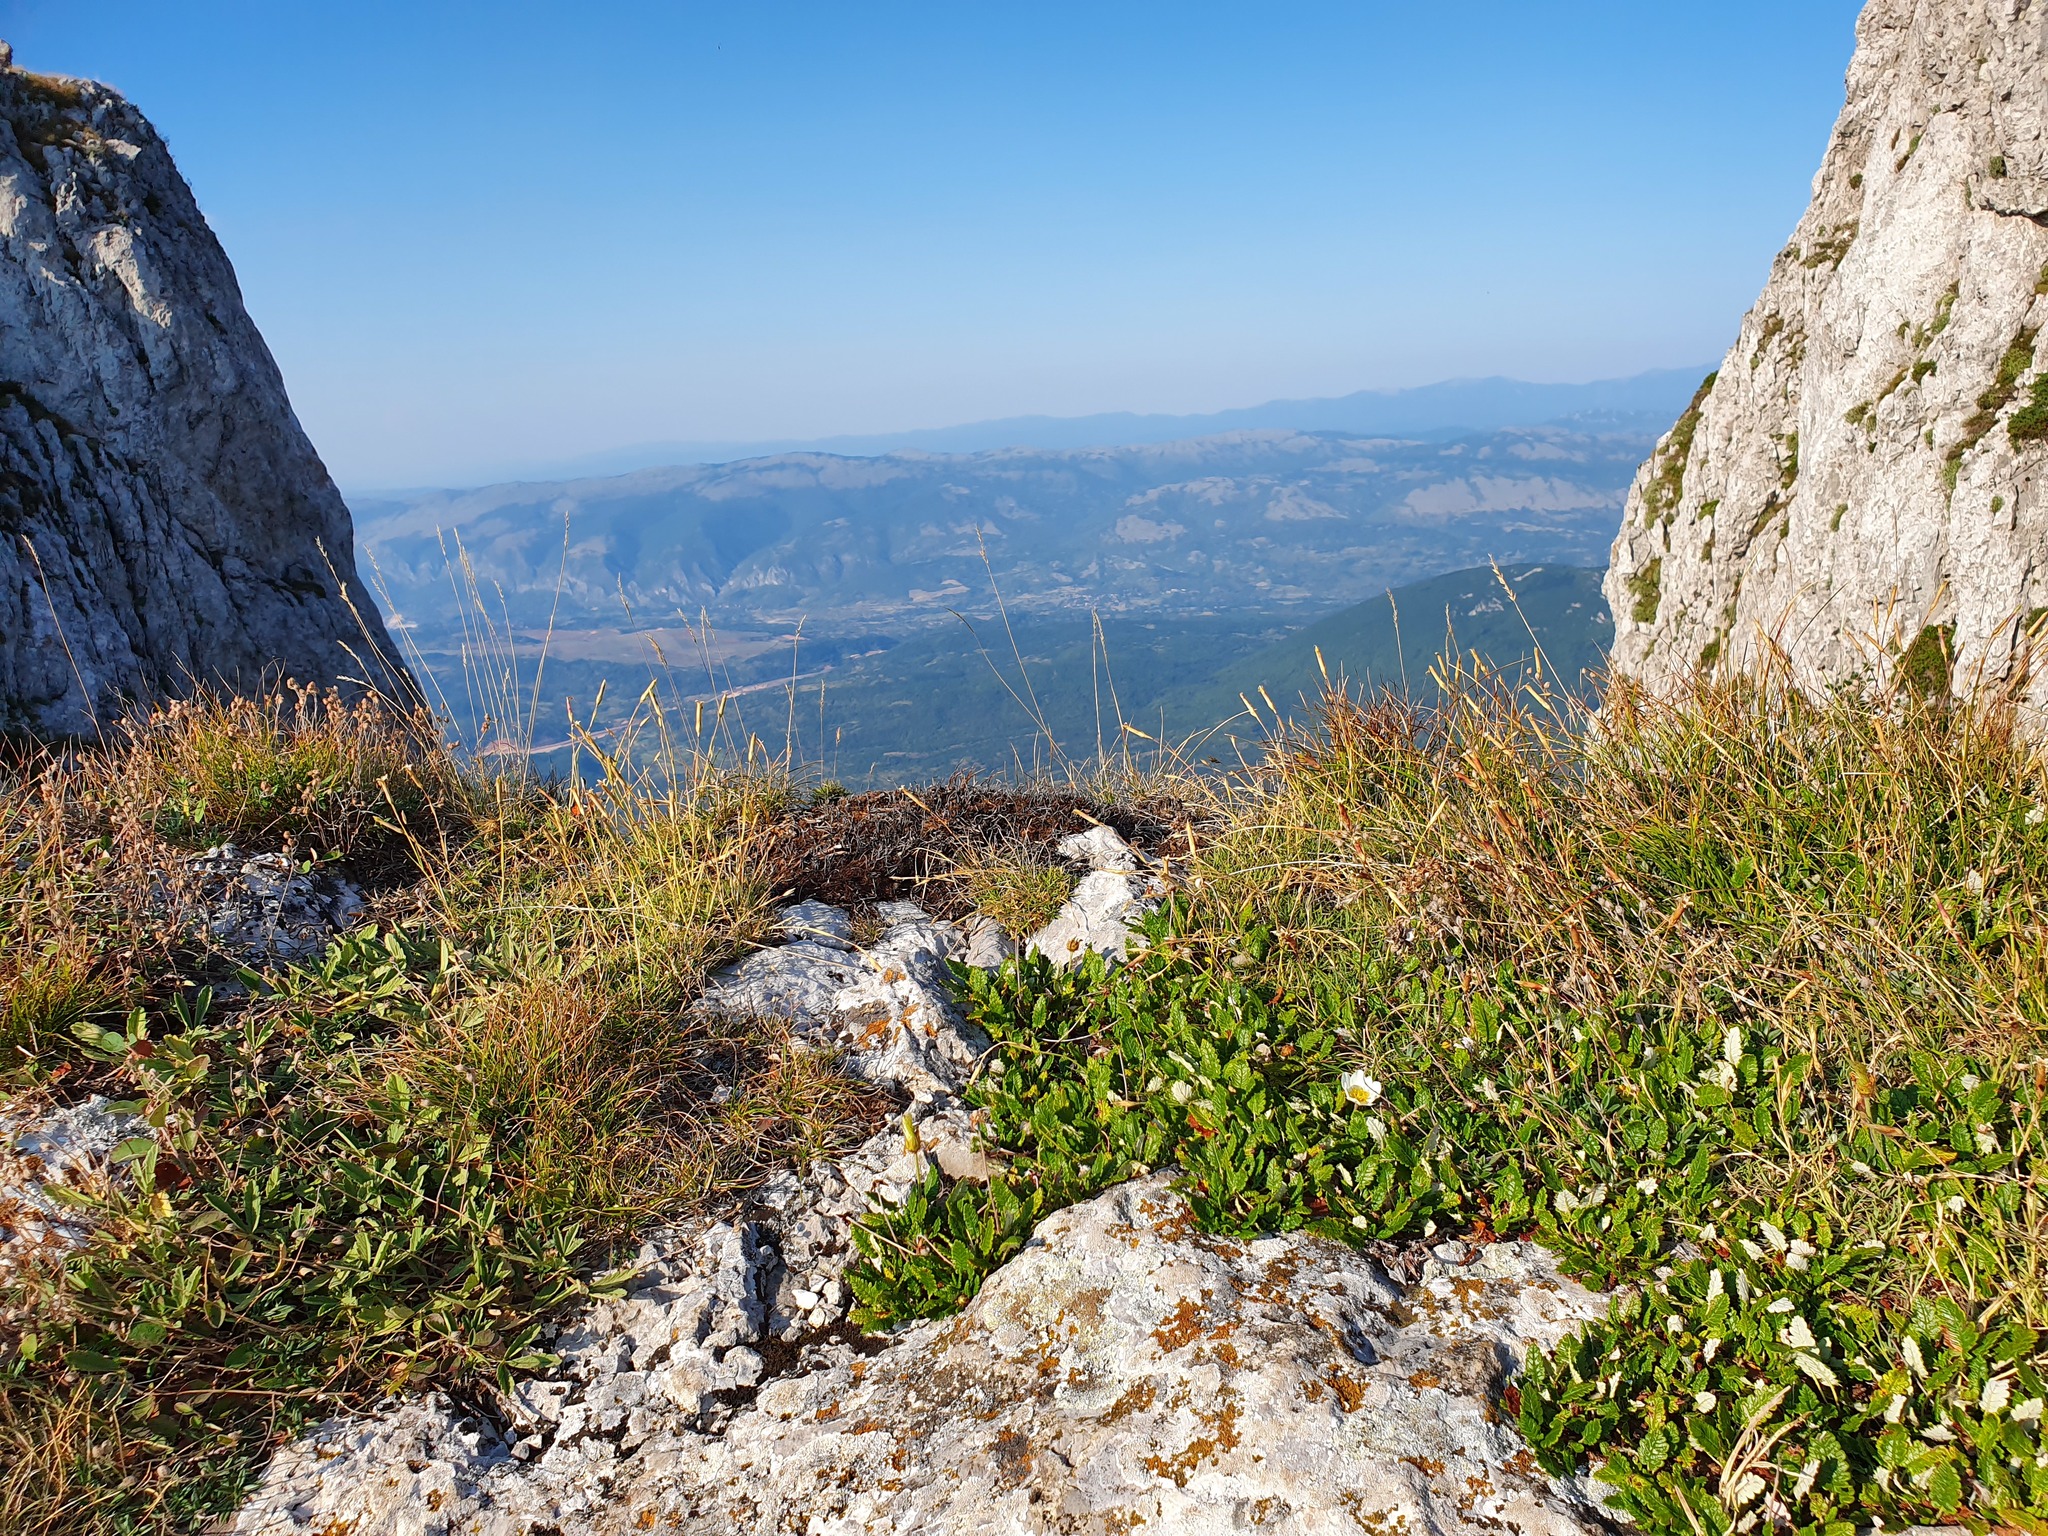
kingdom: Plantae
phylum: Tracheophyta
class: Magnoliopsida
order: Rosales
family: Rosaceae
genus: Dryas
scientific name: Dryas octopetala
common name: Eight-petal mountain-avens
